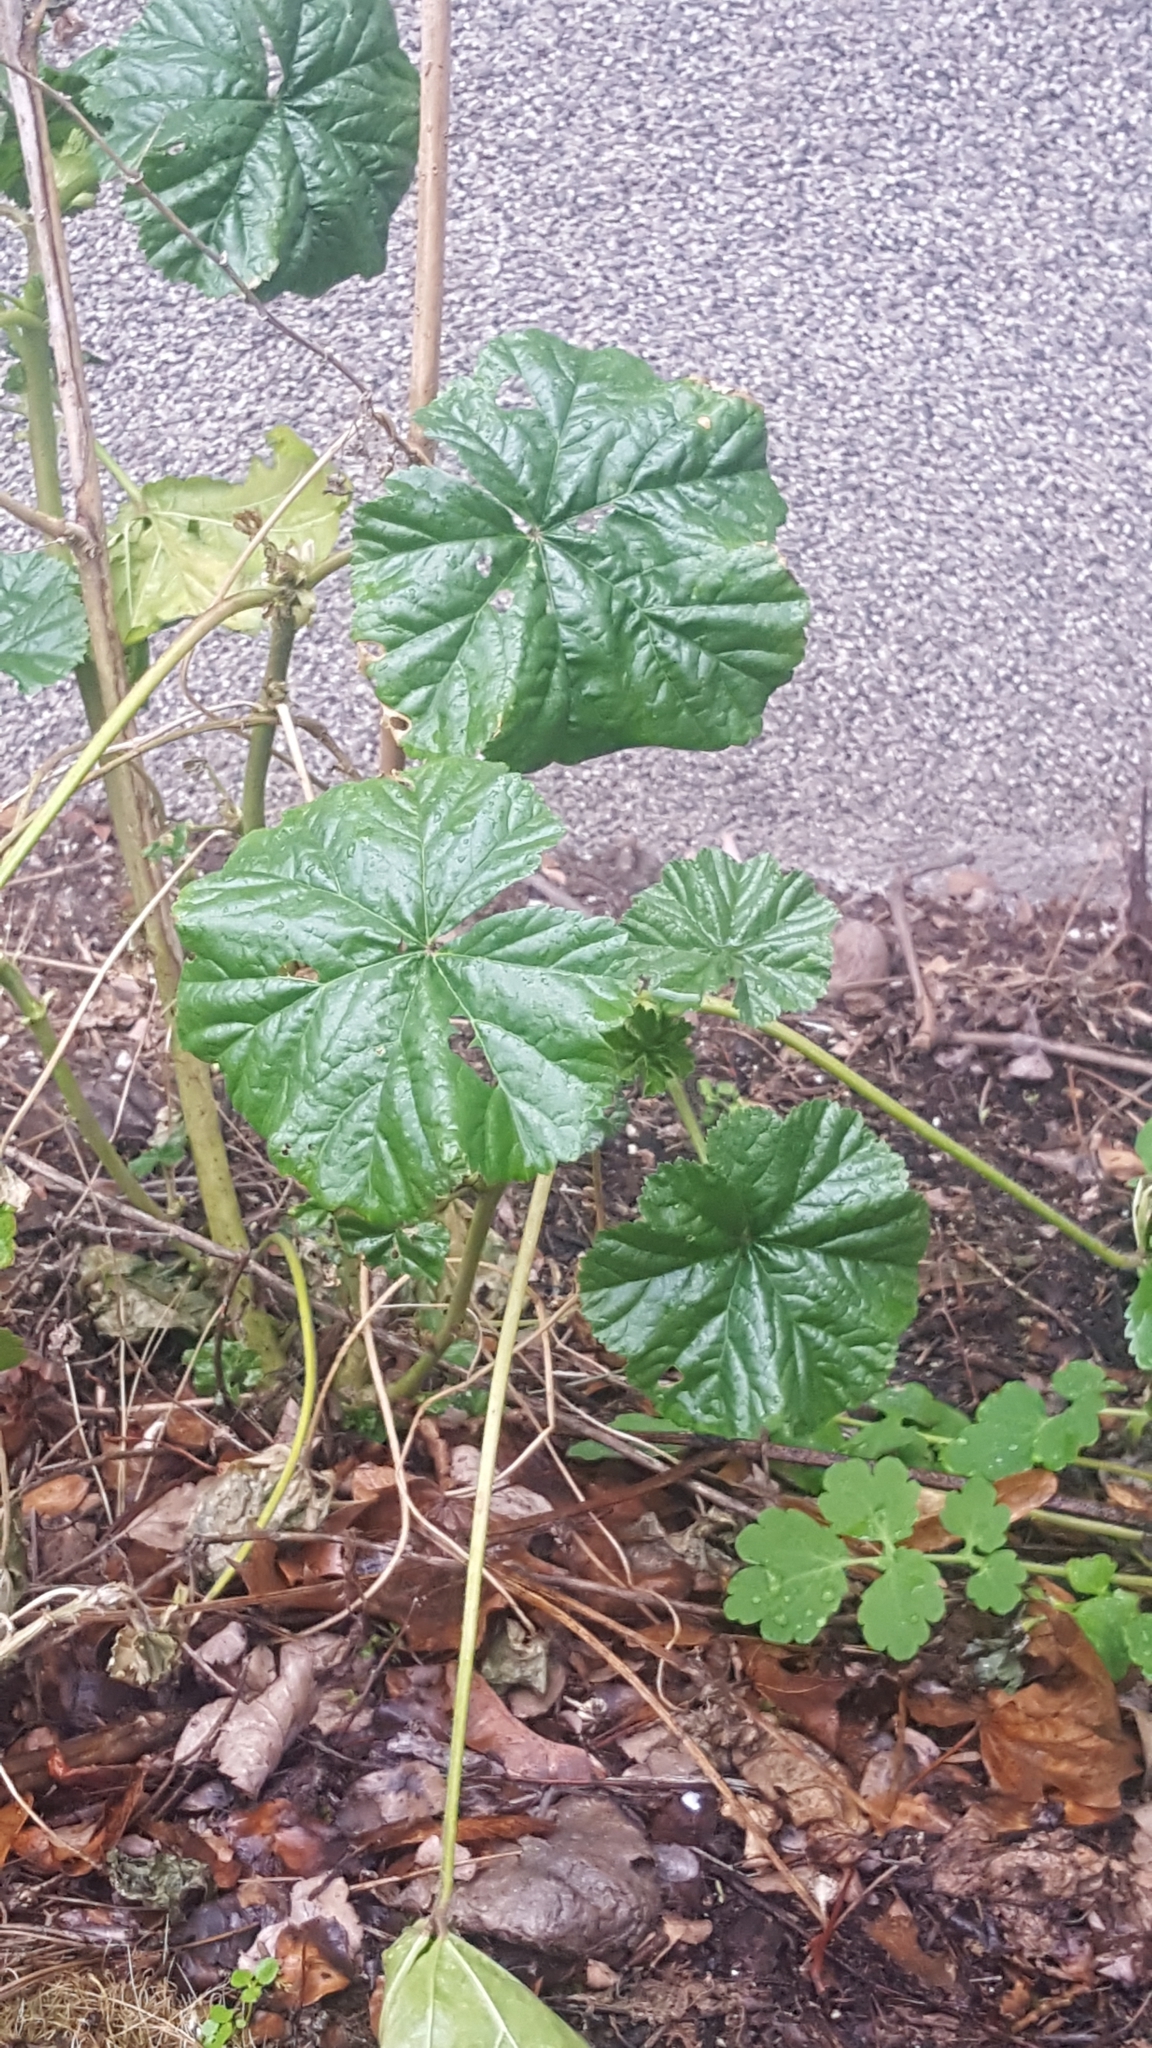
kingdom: Plantae
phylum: Tracheophyta
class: Magnoliopsida
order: Malvales
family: Malvaceae
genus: Malva
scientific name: Malva sylvestris
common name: Common mallow
